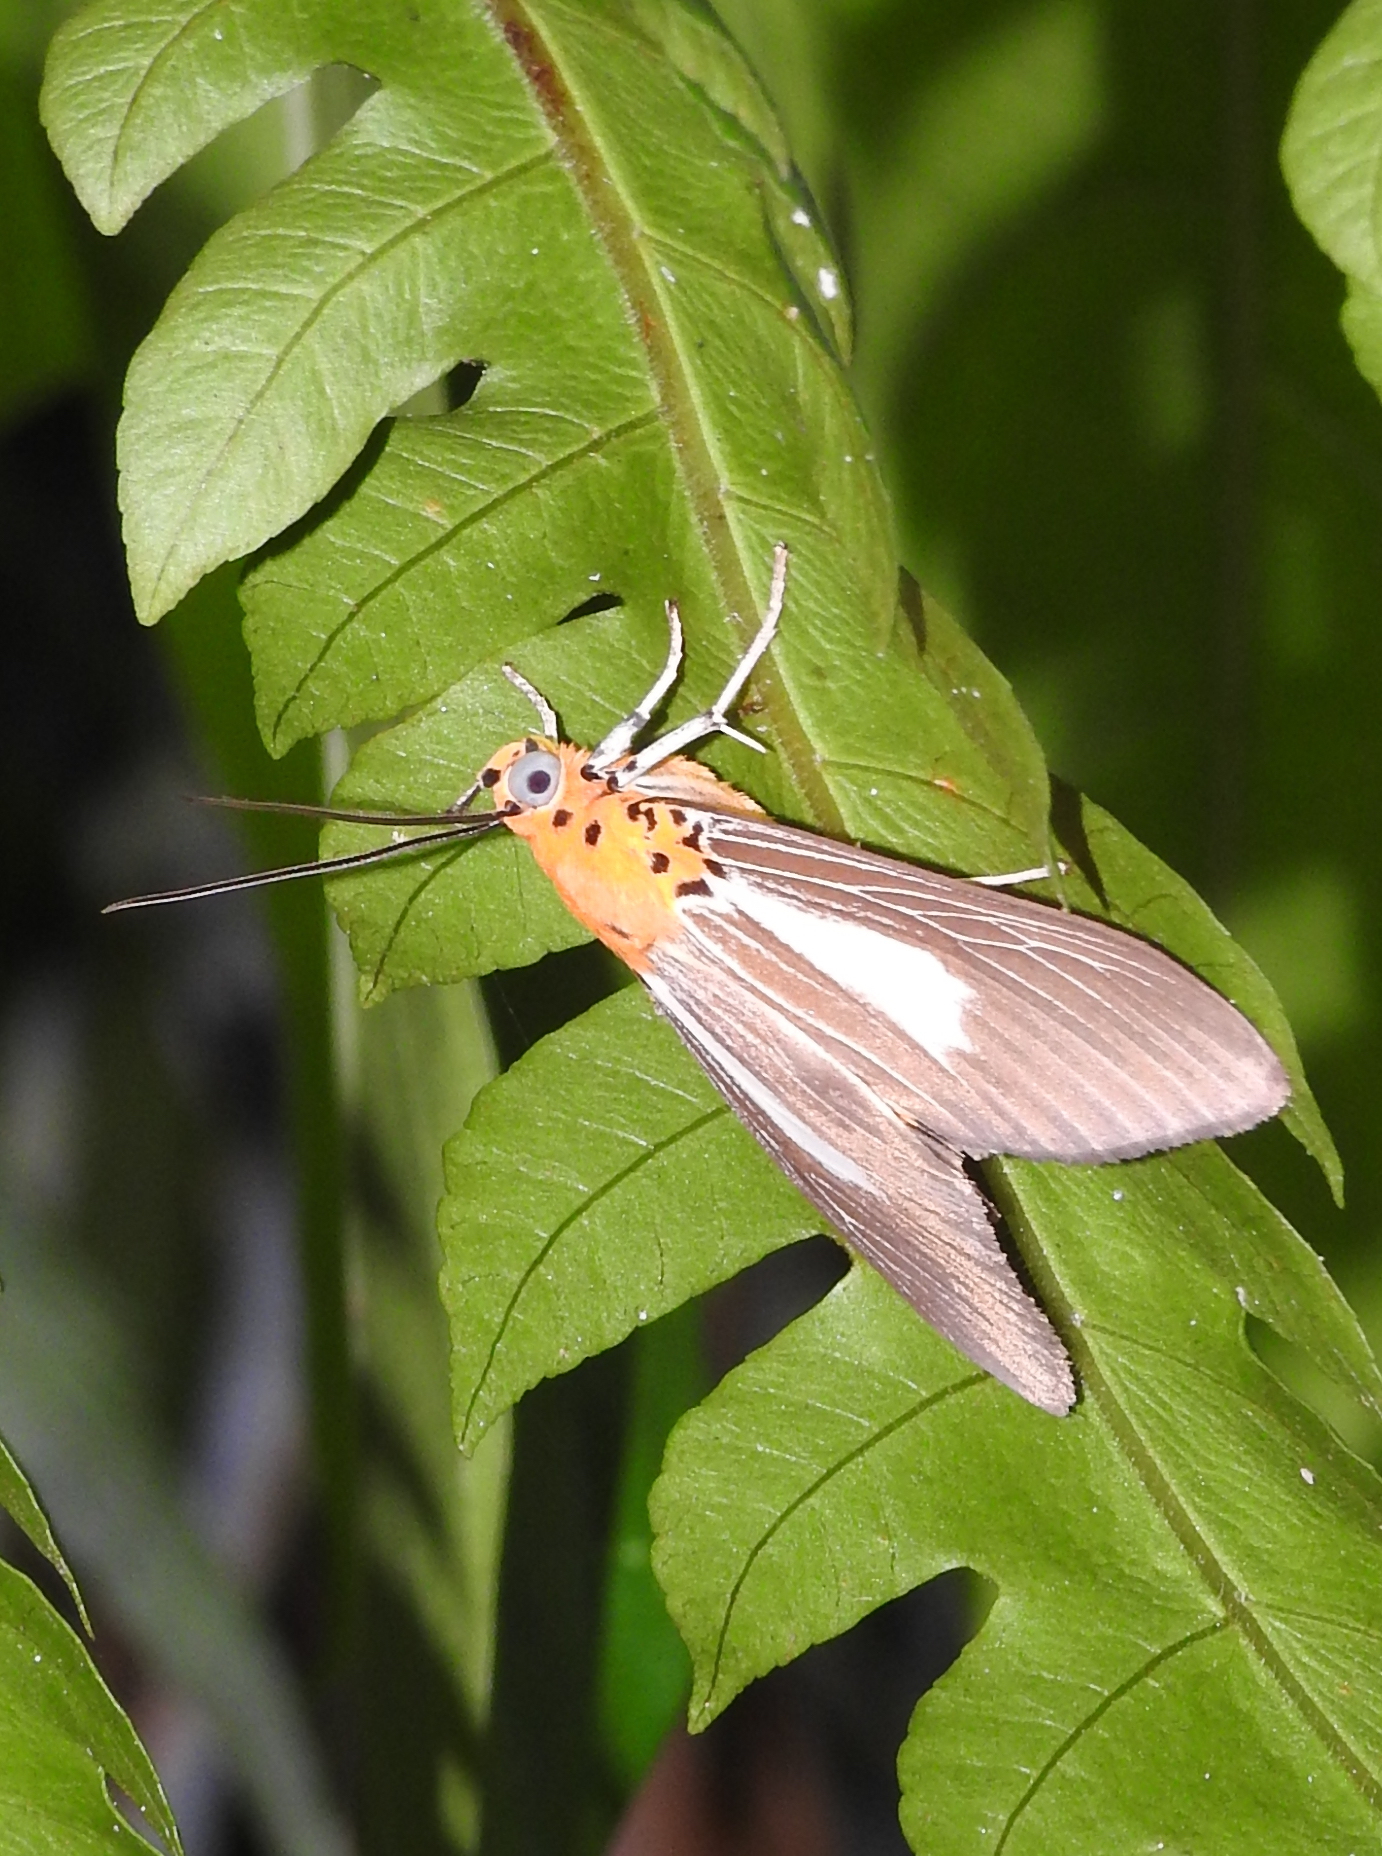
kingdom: Animalia
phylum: Arthropoda
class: Insecta
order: Lepidoptera
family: Erebidae
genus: Asota
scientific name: Asota subsimilis
